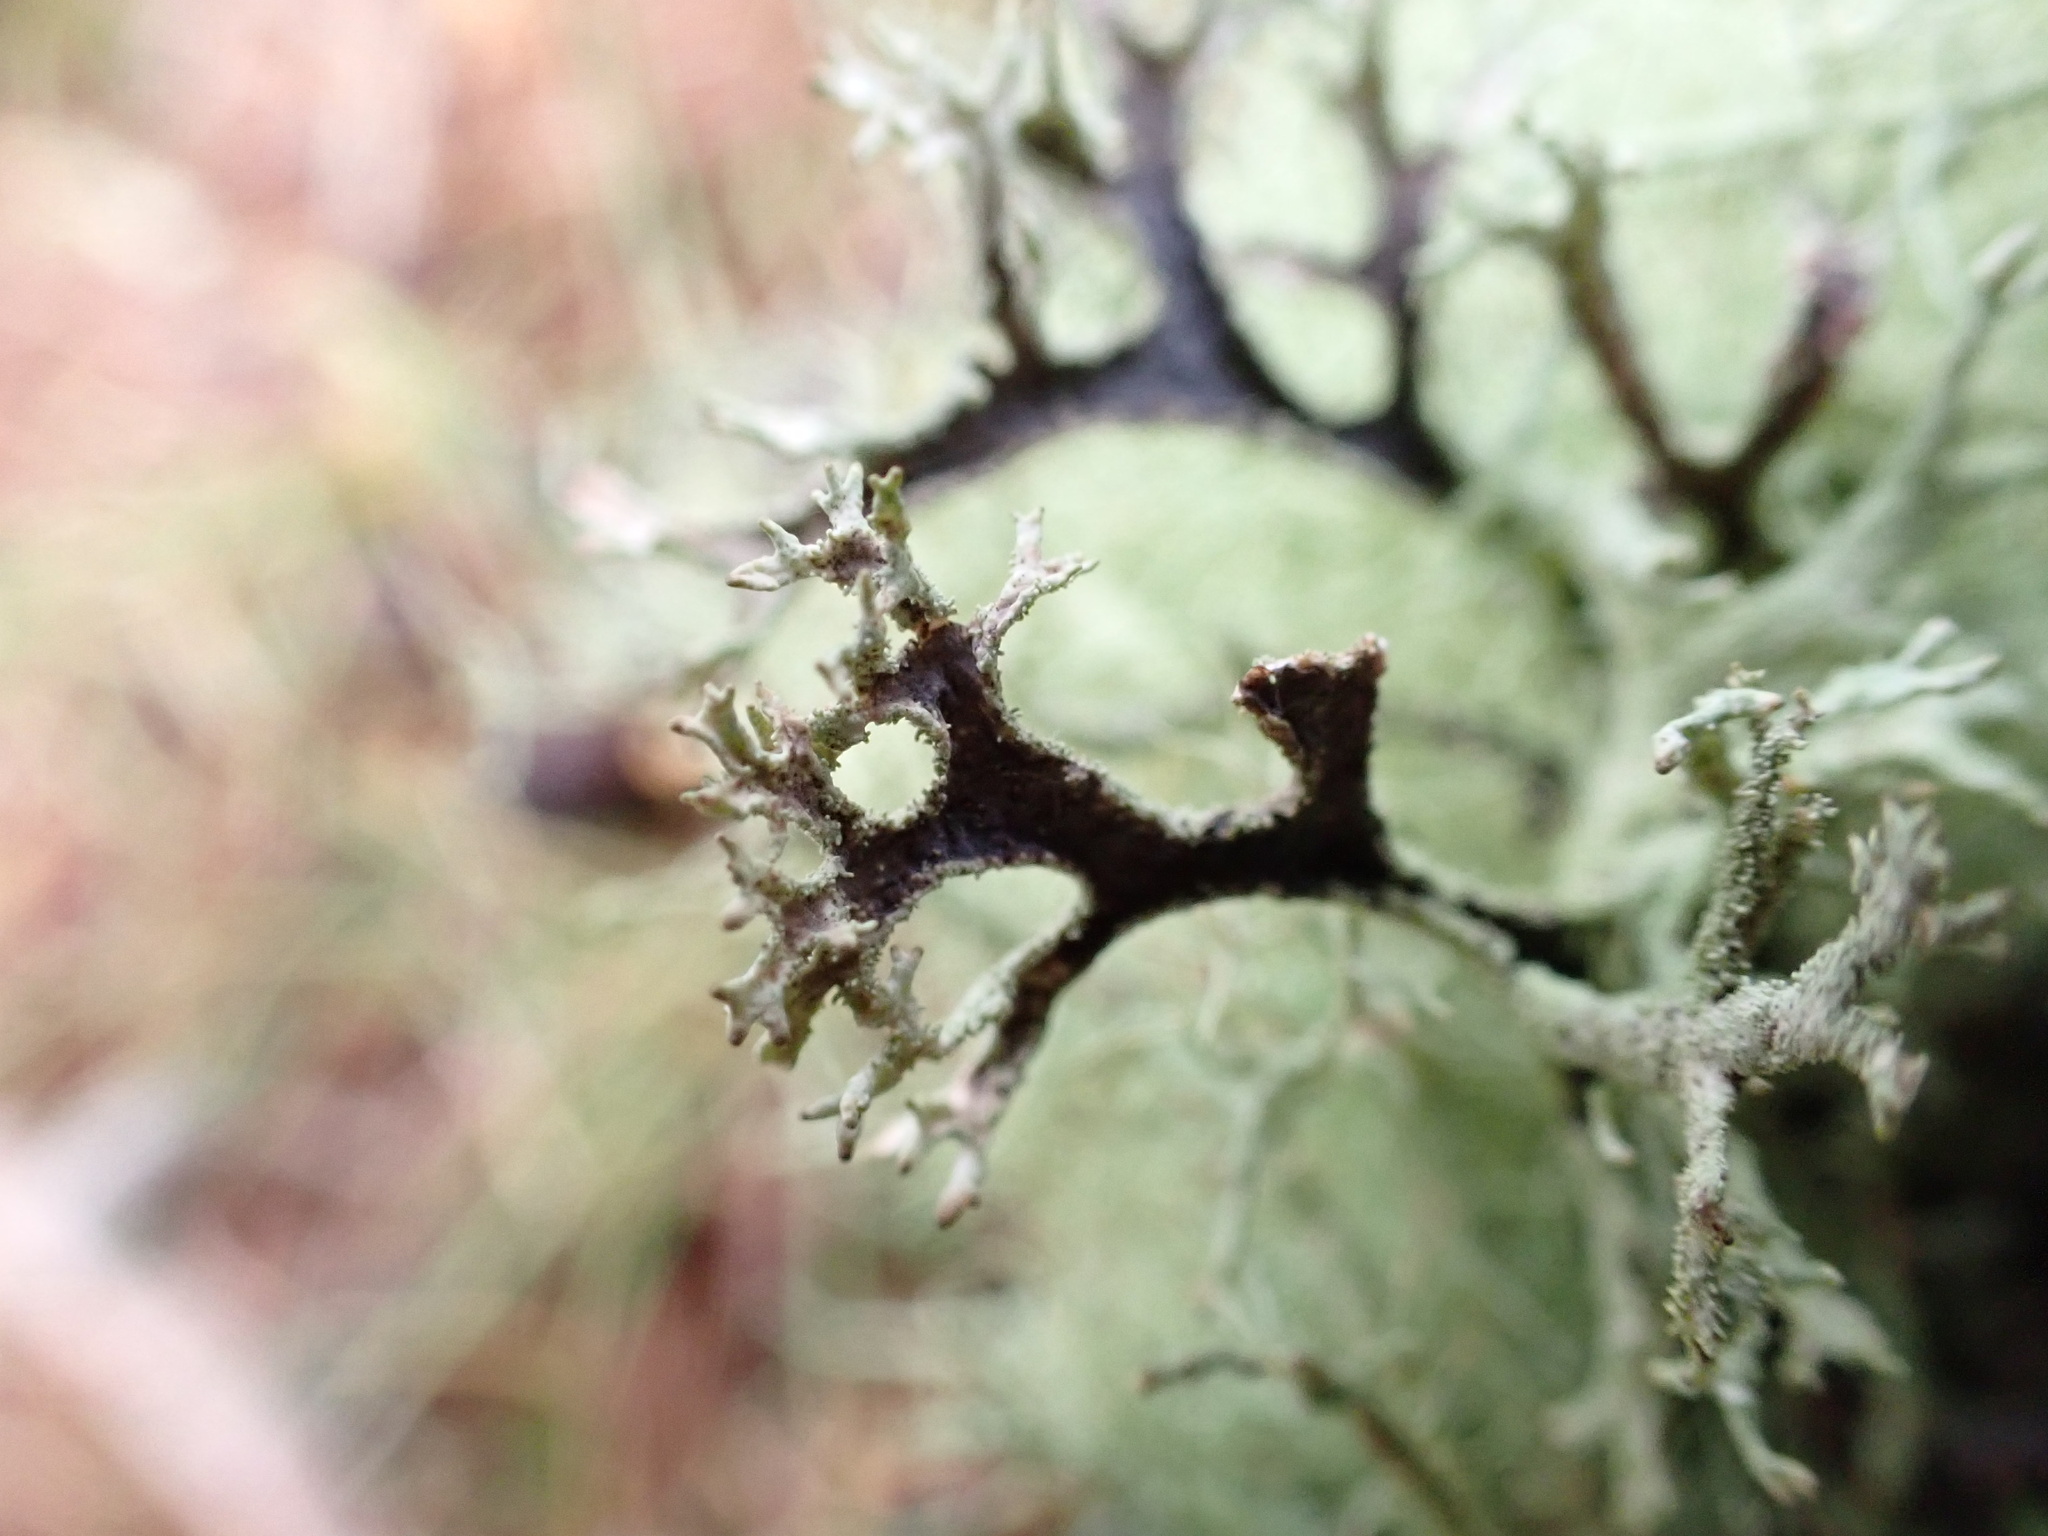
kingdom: Fungi
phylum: Ascomycota
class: Lecanoromycetes
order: Lecanorales
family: Parmeliaceae
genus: Pseudevernia
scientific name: Pseudevernia furfuracea
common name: Tree moss
